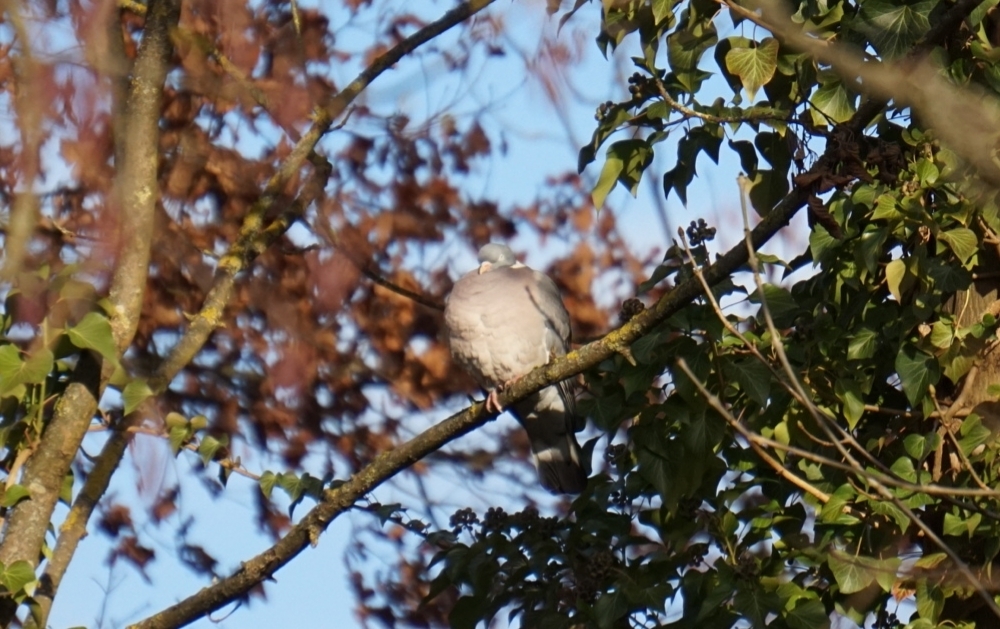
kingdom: Animalia
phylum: Chordata
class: Aves
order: Columbiformes
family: Columbidae
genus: Columba
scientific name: Columba palumbus
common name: Common wood pigeon
